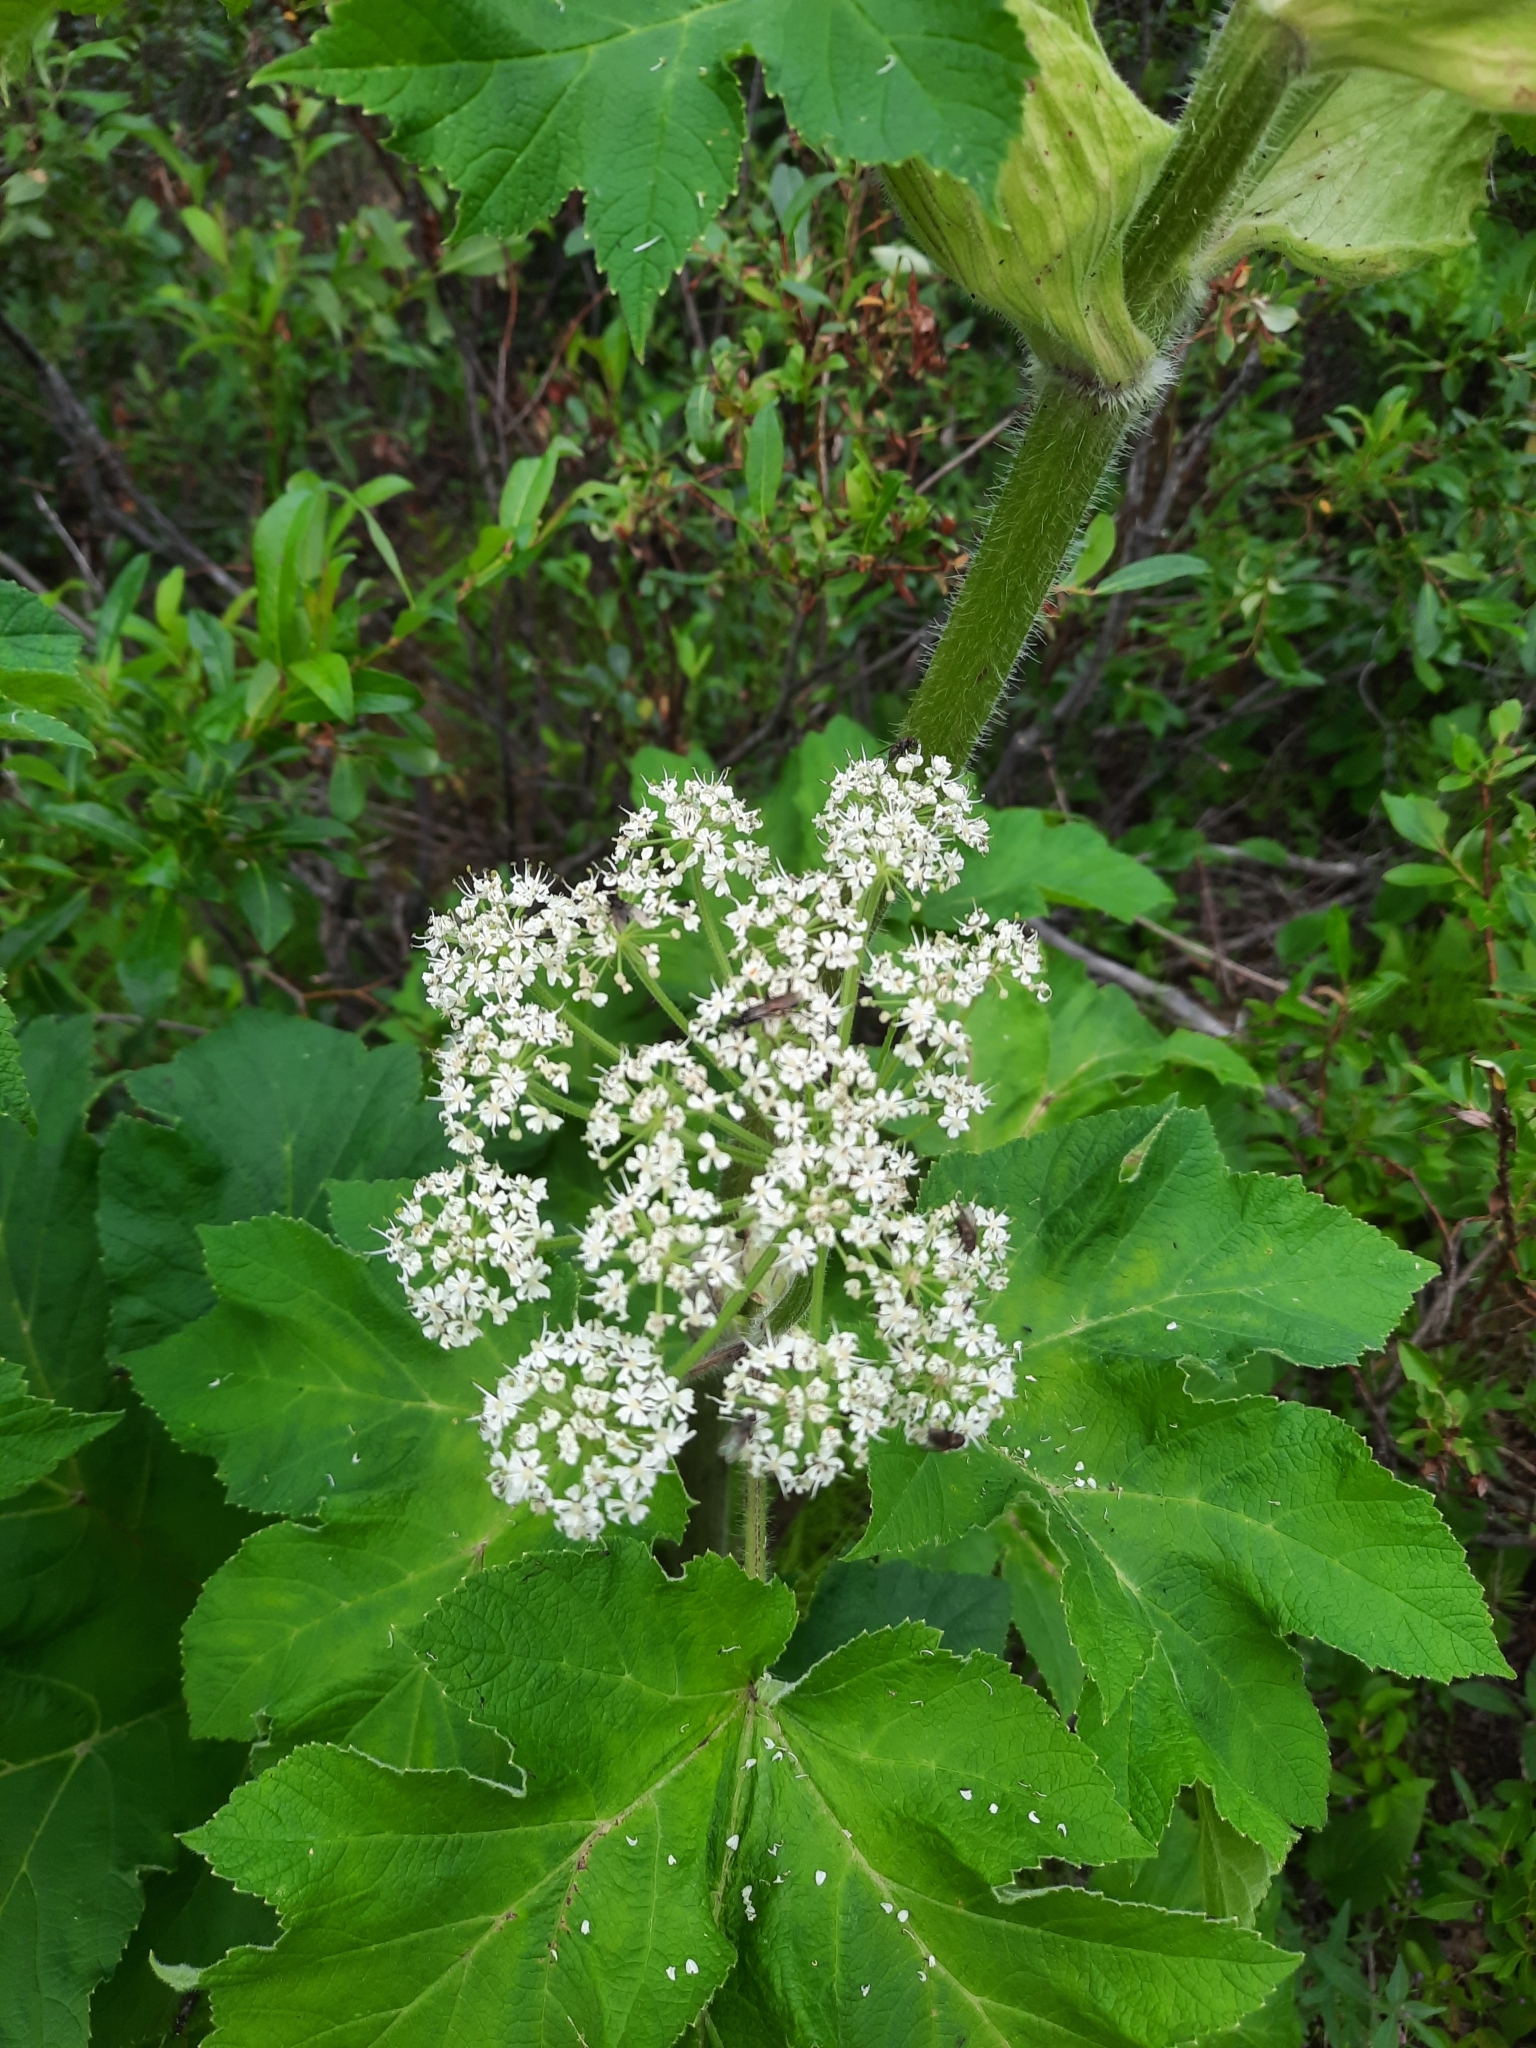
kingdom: Plantae
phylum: Tracheophyta
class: Magnoliopsida
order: Apiales
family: Apiaceae
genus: Heracleum
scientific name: Heracleum maximum
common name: American cow parsnip
